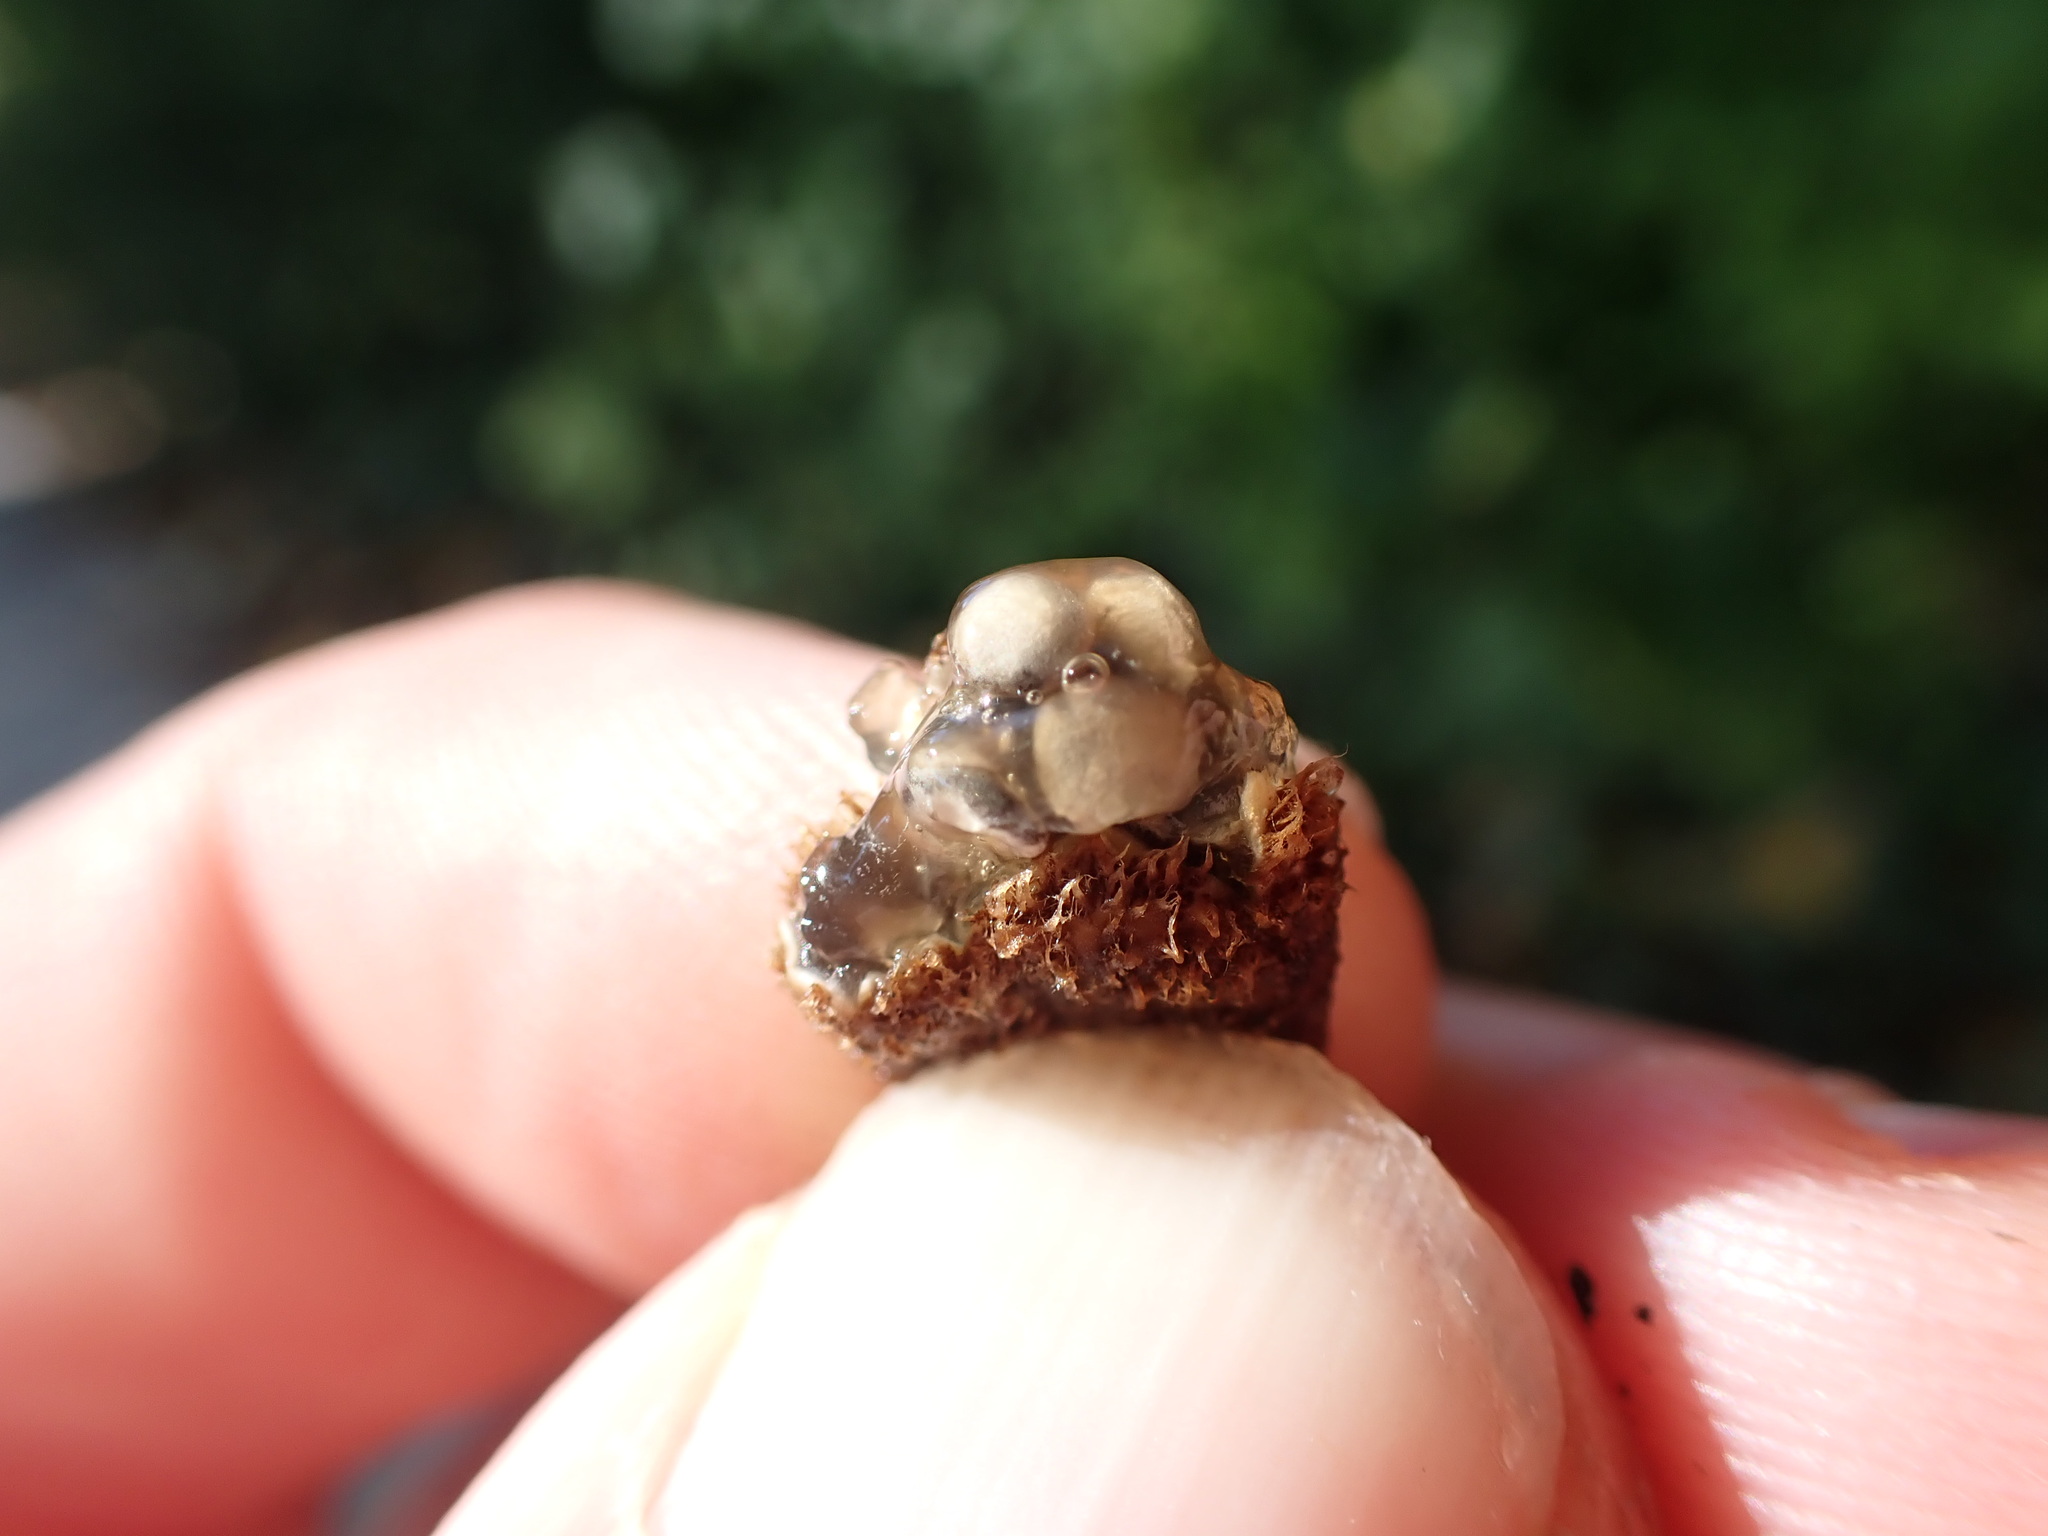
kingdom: Fungi
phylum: Basidiomycota
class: Agaricomycetes
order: Agaricales
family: Agaricaceae
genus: Cyathus
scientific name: Cyathus striatus
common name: Fluted bird's nest
